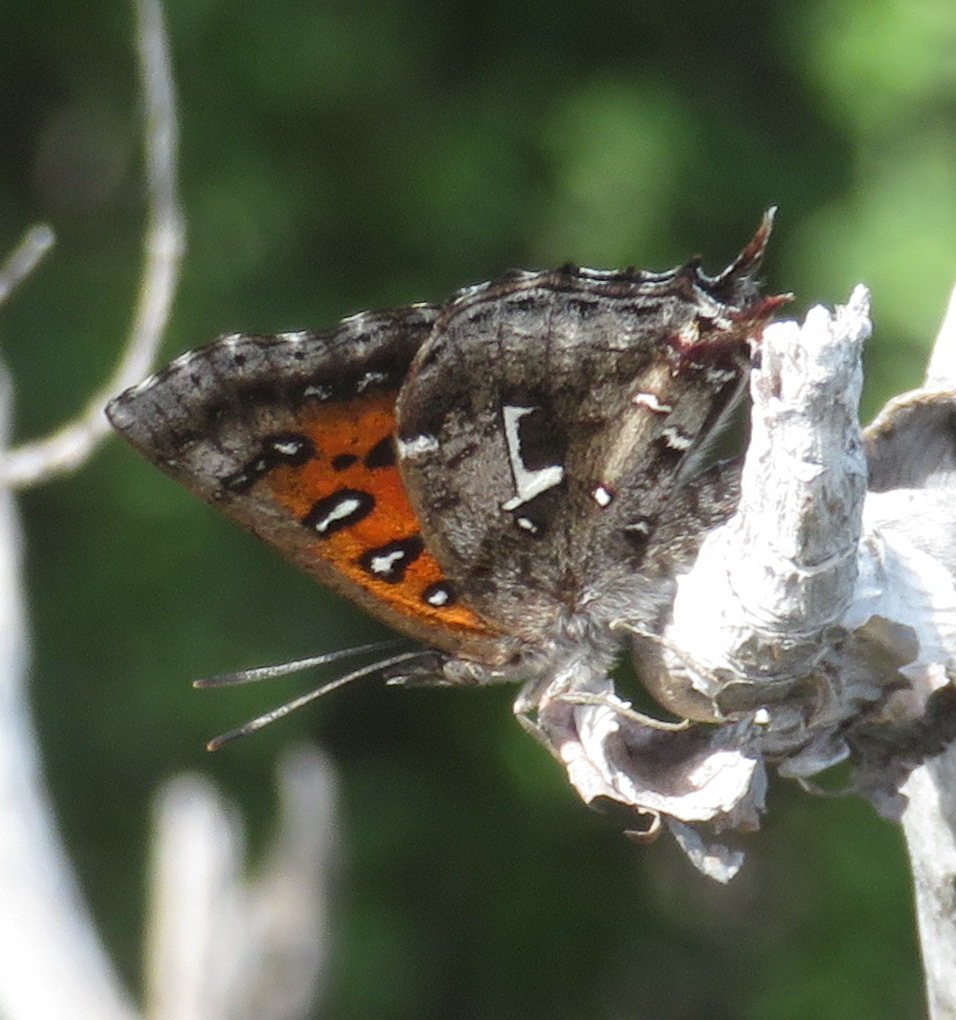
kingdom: Animalia
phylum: Arthropoda
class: Insecta
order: Lepidoptera
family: Lycaenidae
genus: Phasis
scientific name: Phasis braueri
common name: Brauer's arrowhead
